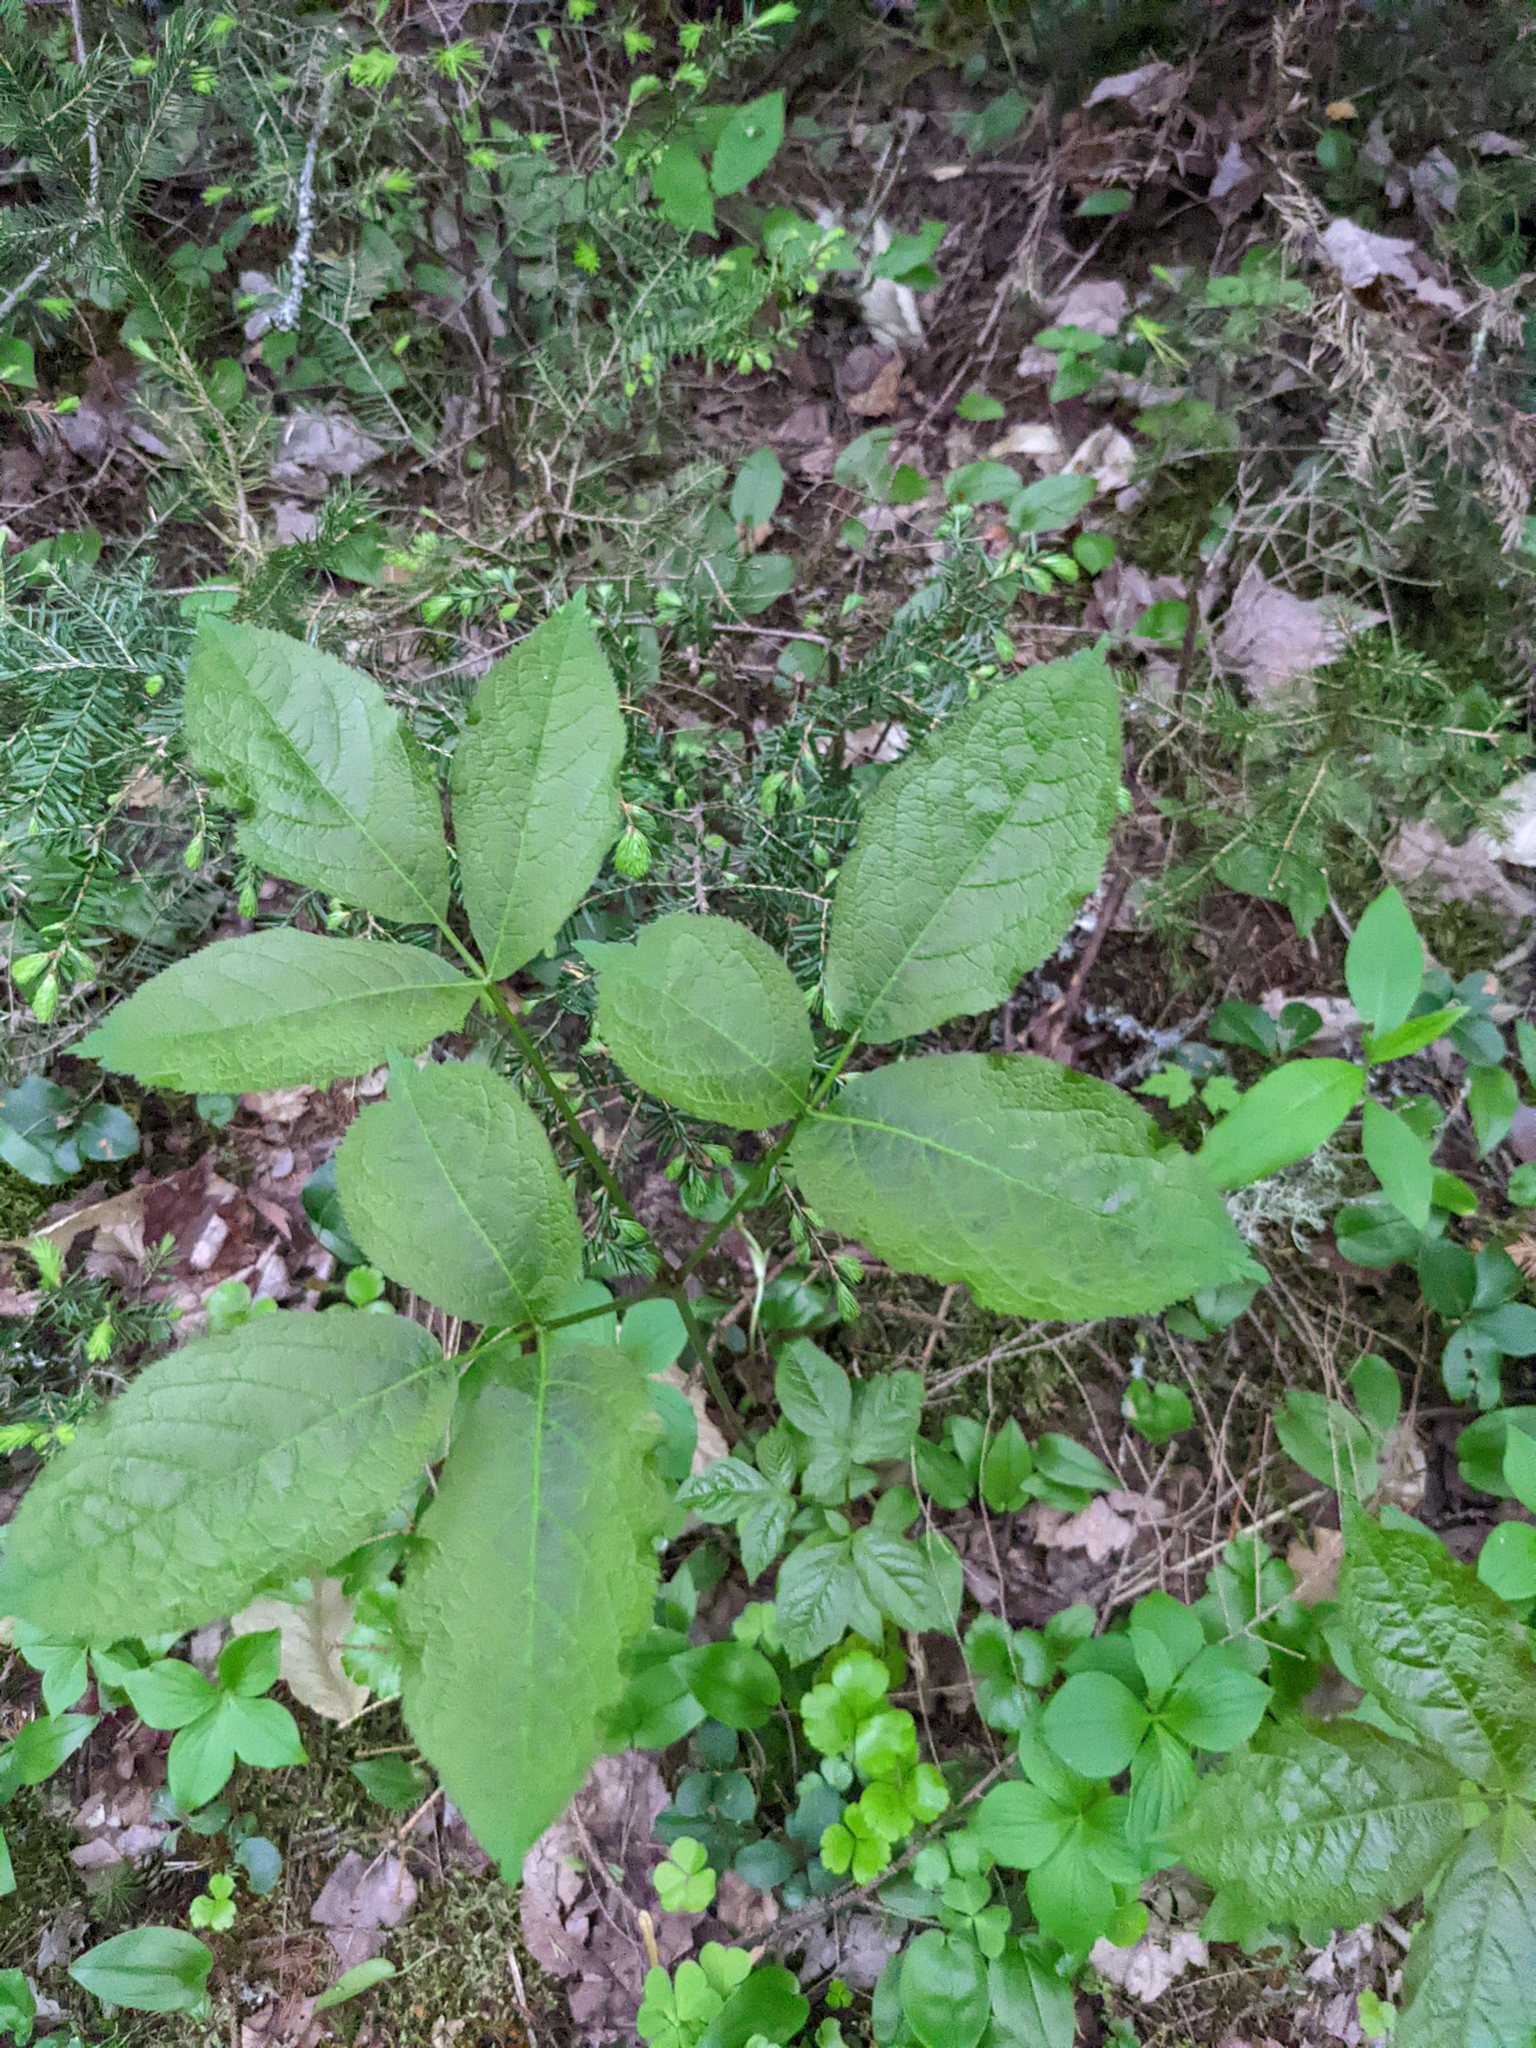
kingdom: Plantae
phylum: Tracheophyta
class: Magnoliopsida
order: Apiales
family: Araliaceae
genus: Aralia
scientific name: Aralia nudicaulis
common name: Wild sarsaparilla
